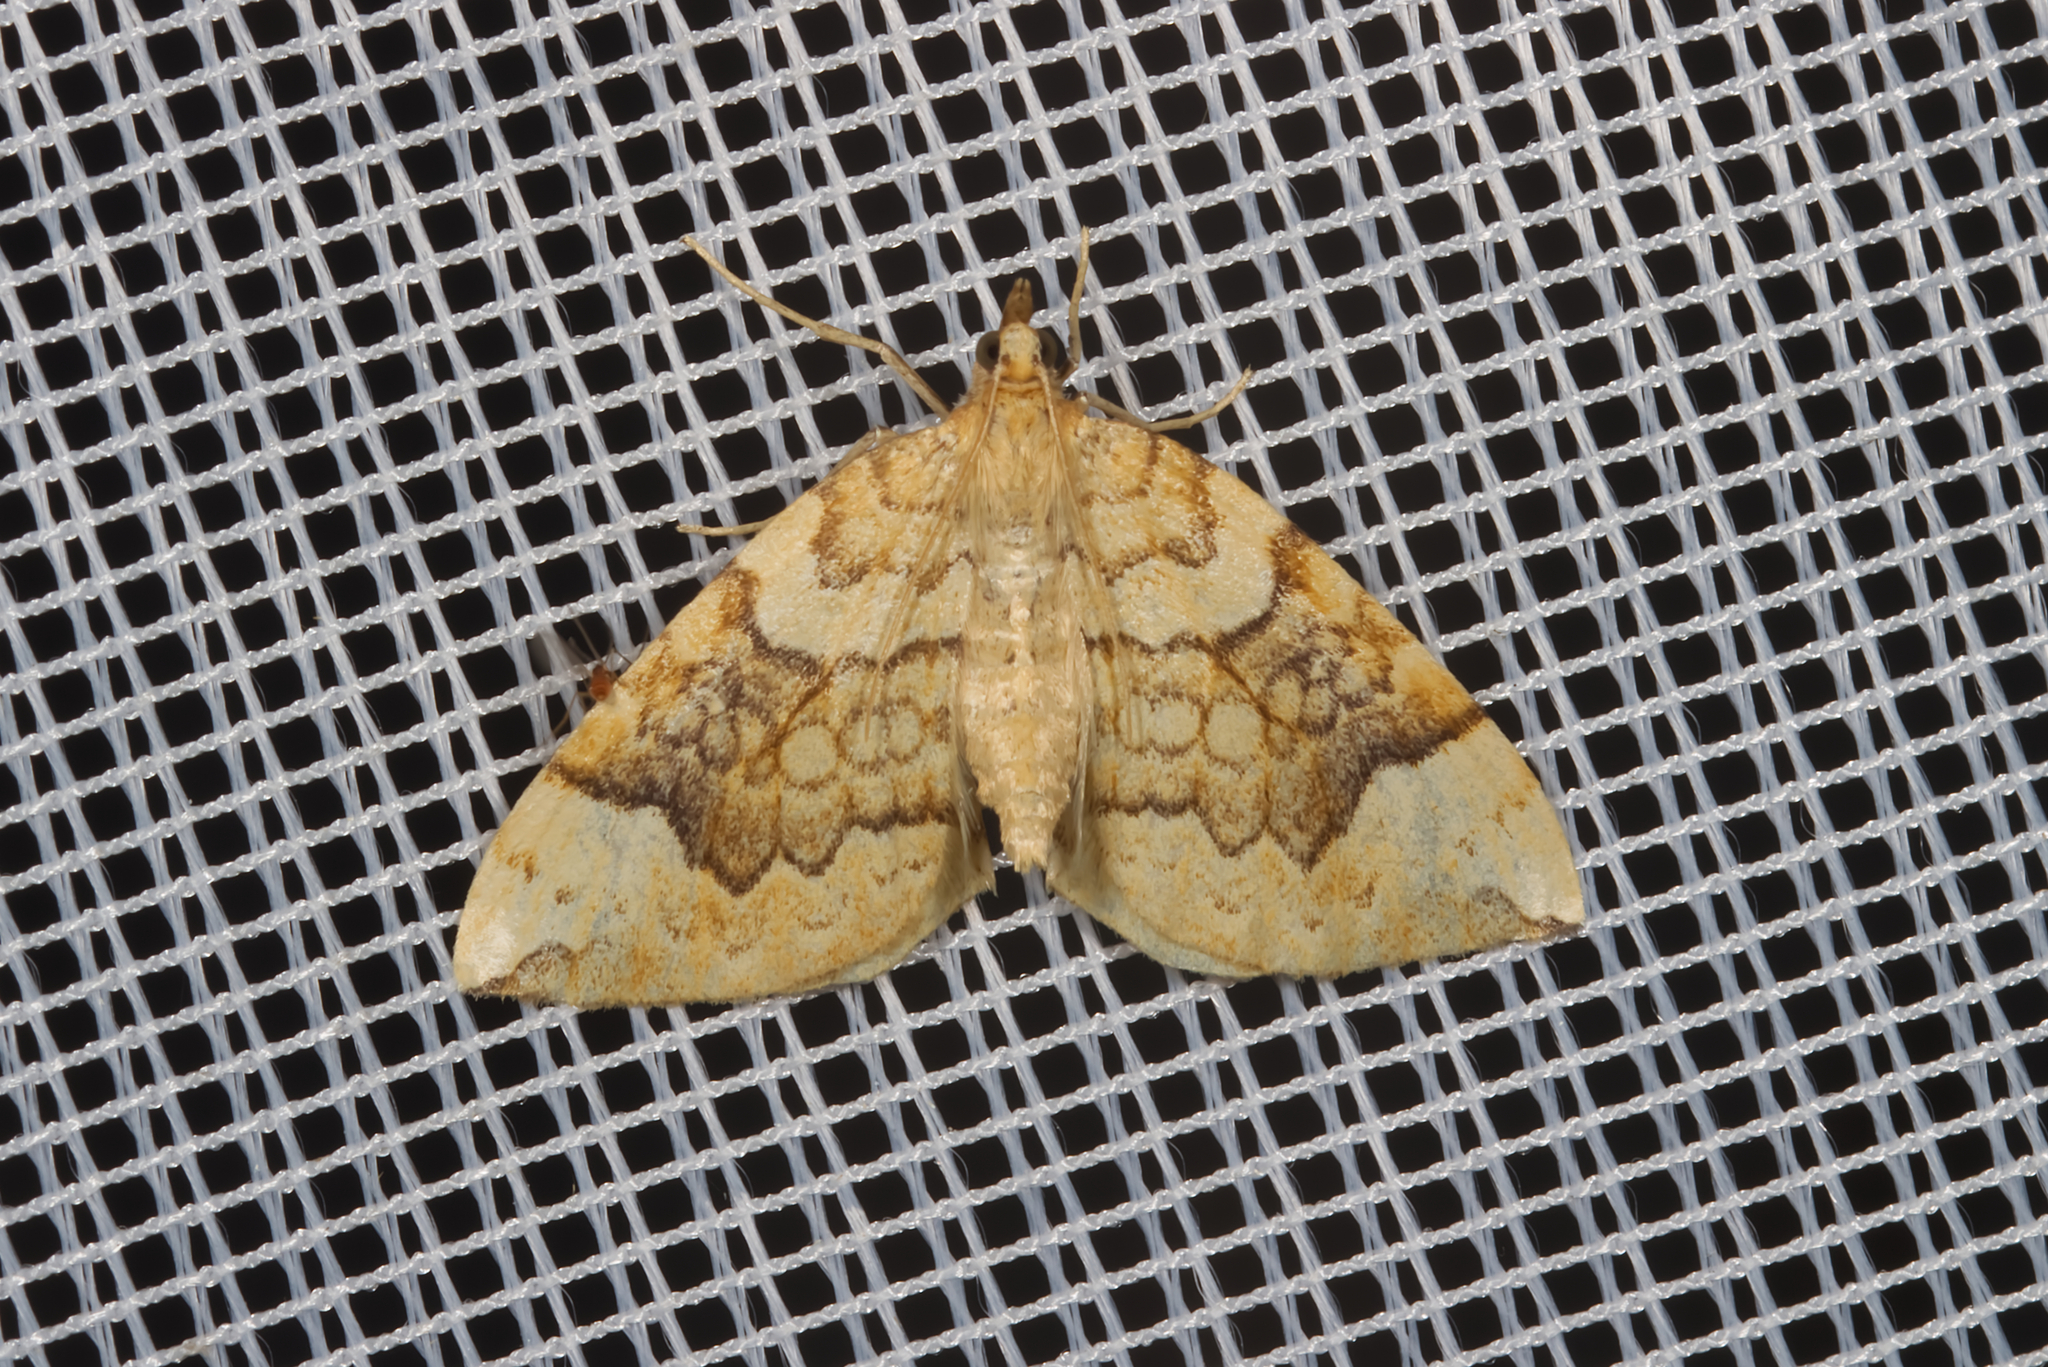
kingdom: Animalia
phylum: Arthropoda
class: Insecta
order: Lepidoptera
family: Geometridae
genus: Eulithis
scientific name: Eulithis populata
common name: Northern spinach
